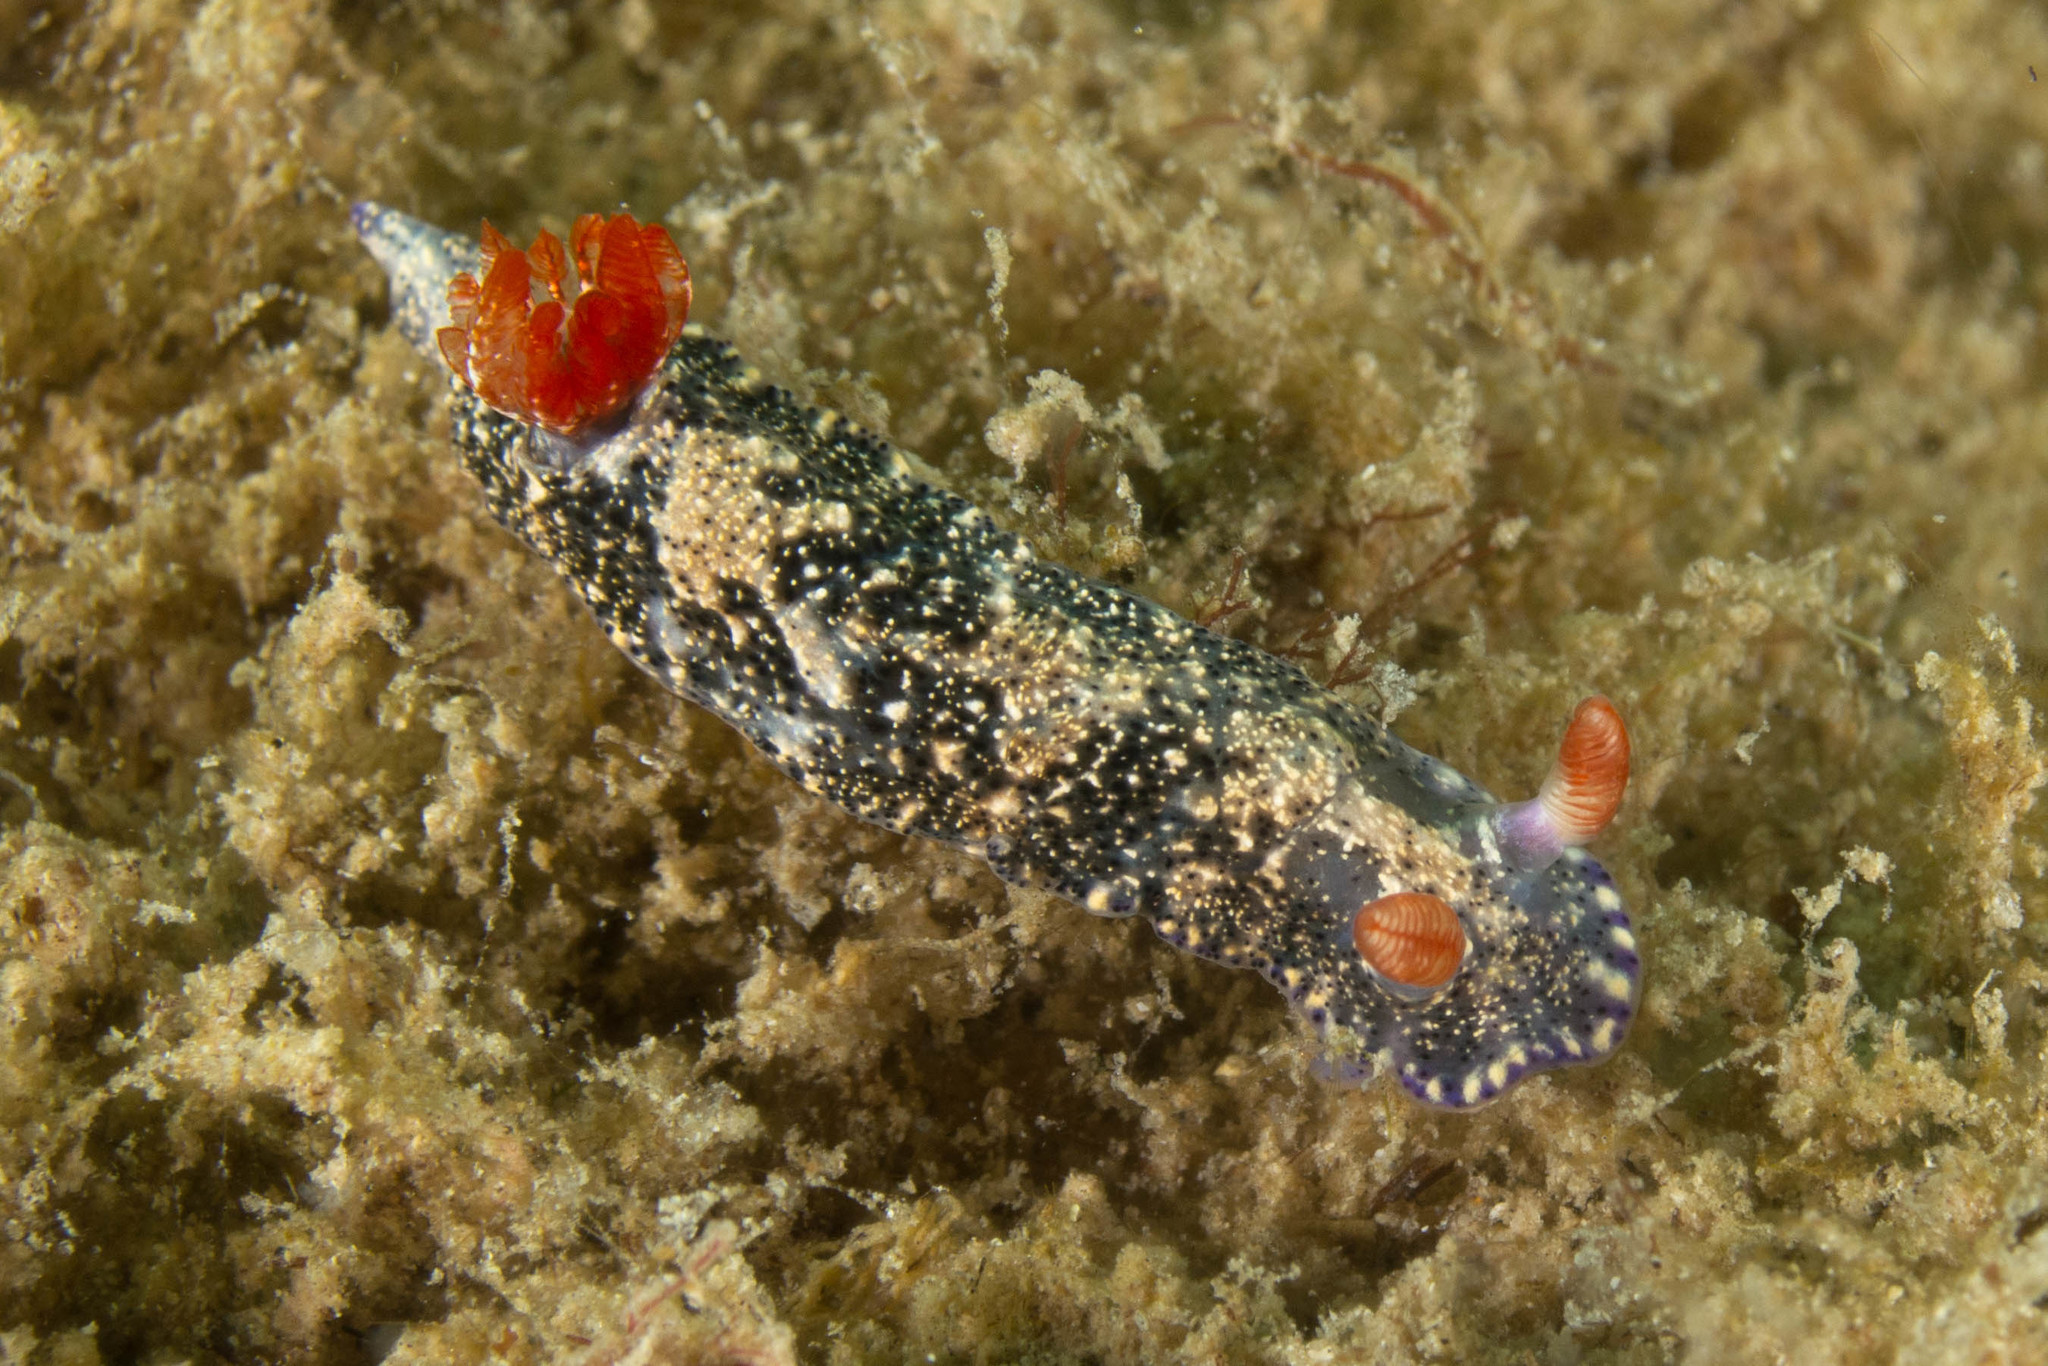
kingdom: Animalia
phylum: Mollusca
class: Gastropoda
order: Nudibranchia
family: Chromodorididae
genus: Hypselodoris
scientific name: Hypselodoris saintvincentius
